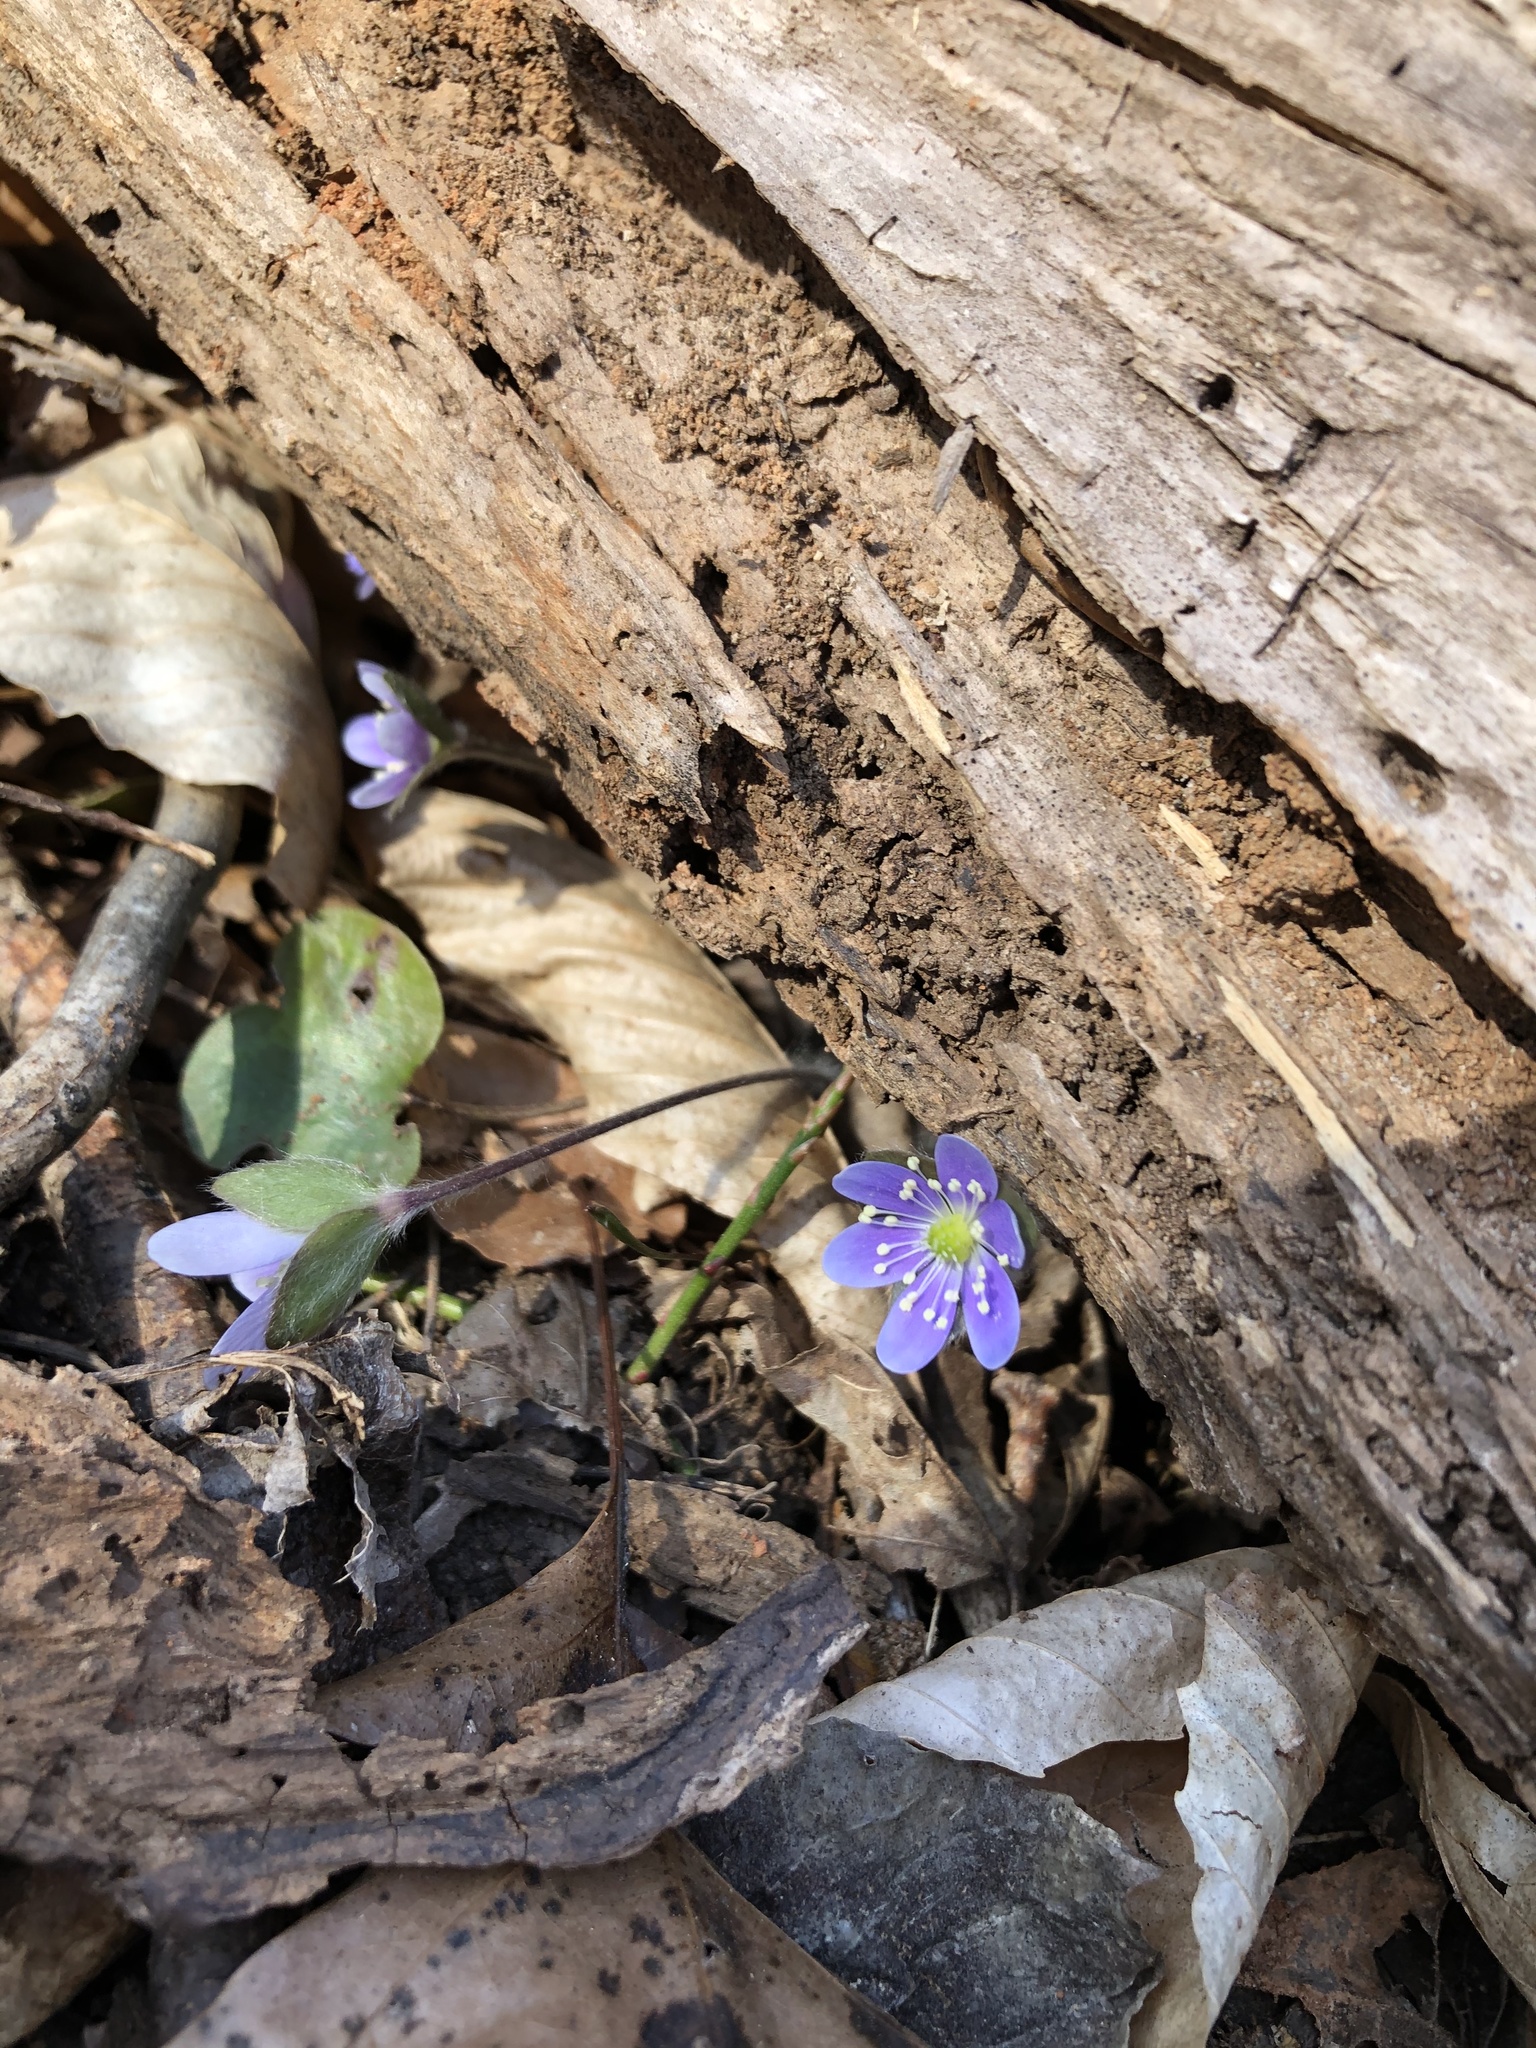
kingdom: Plantae
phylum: Tracheophyta
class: Magnoliopsida
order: Ranunculales
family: Ranunculaceae
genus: Hepatica
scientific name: Hepatica americana
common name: American hepatica
